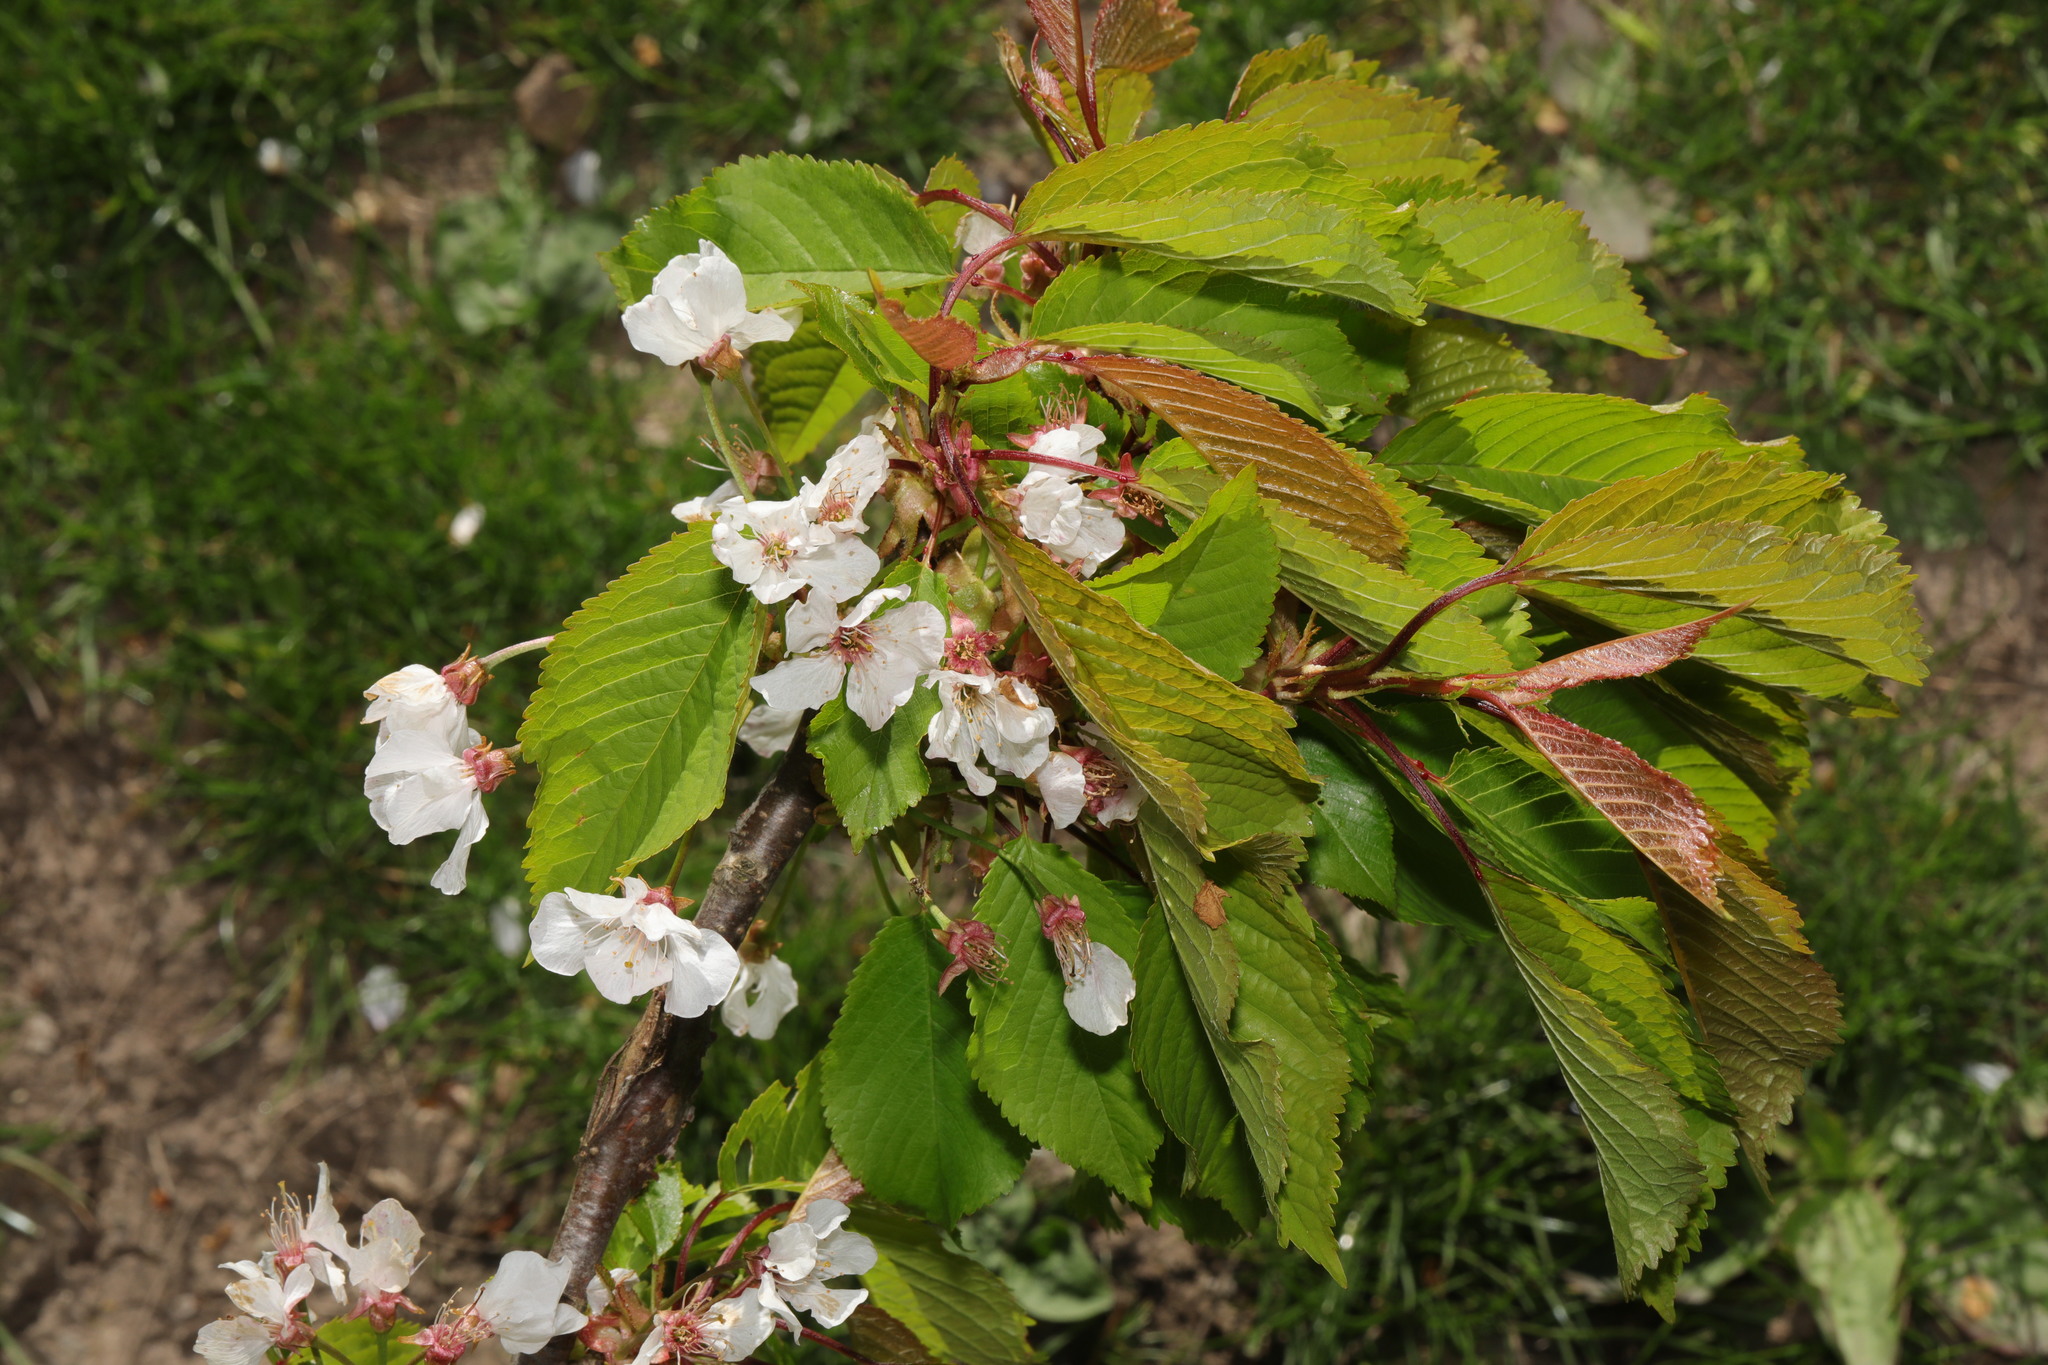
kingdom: Plantae
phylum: Tracheophyta
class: Magnoliopsida
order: Rosales
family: Rosaceae
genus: Prunus
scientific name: Prunus avium
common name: Sweet cherry
